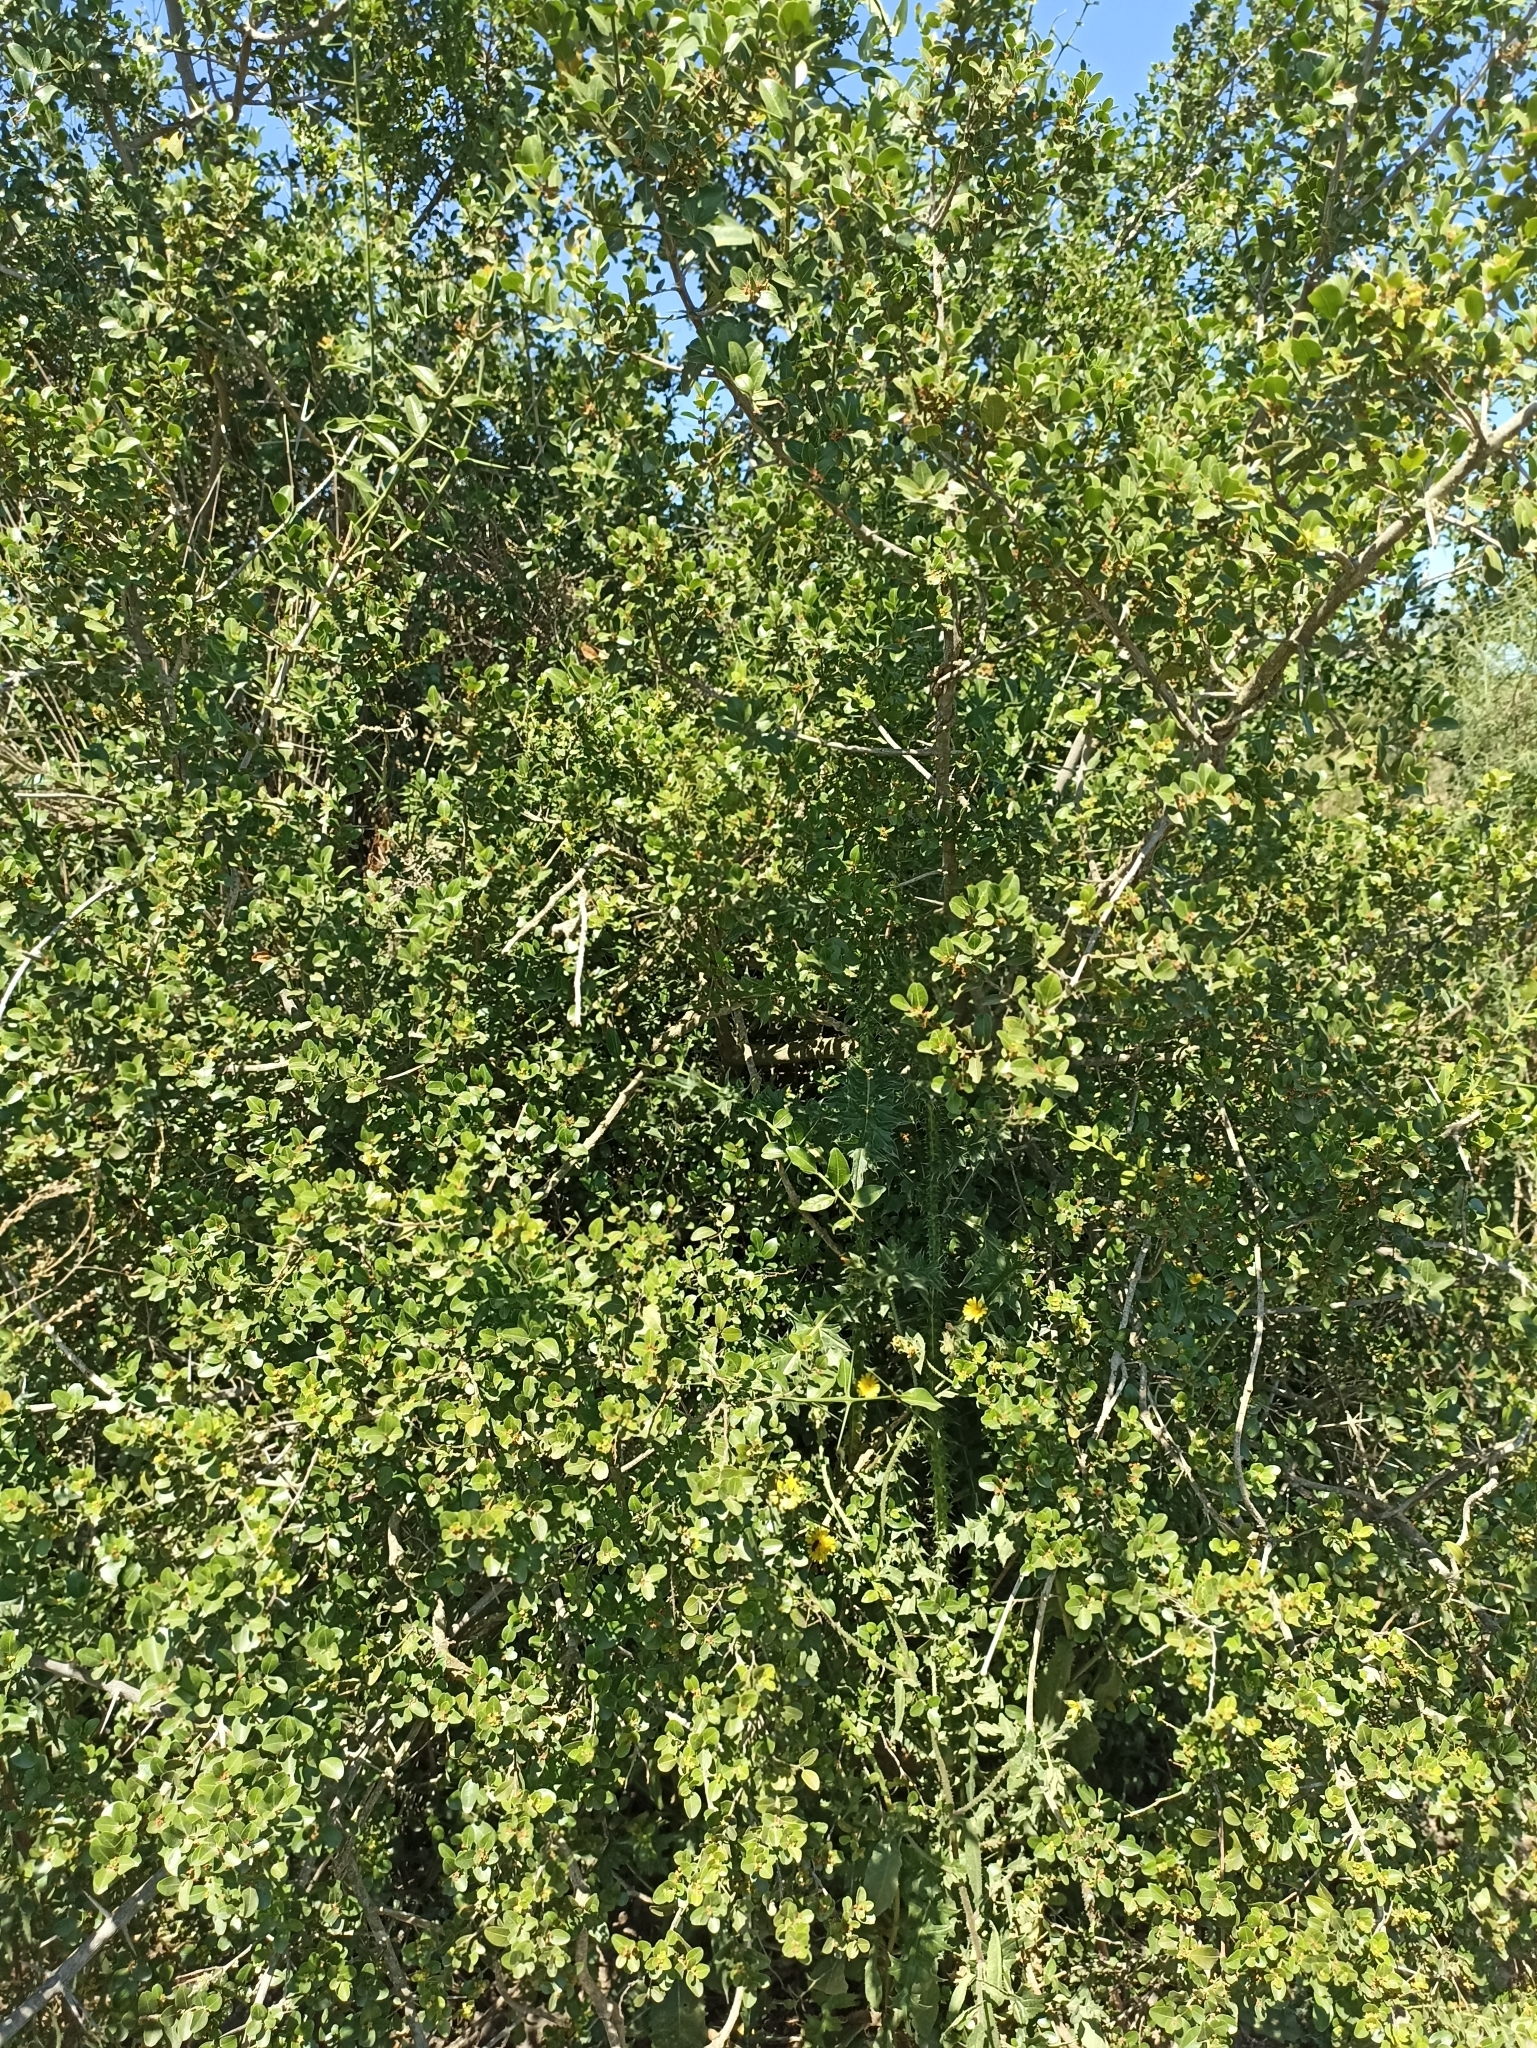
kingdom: Plantae
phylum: Tracheophyta
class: Magnoliopsida
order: Rosales
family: Rhamnaceae
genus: Scutia
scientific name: Scutia buxifolia
